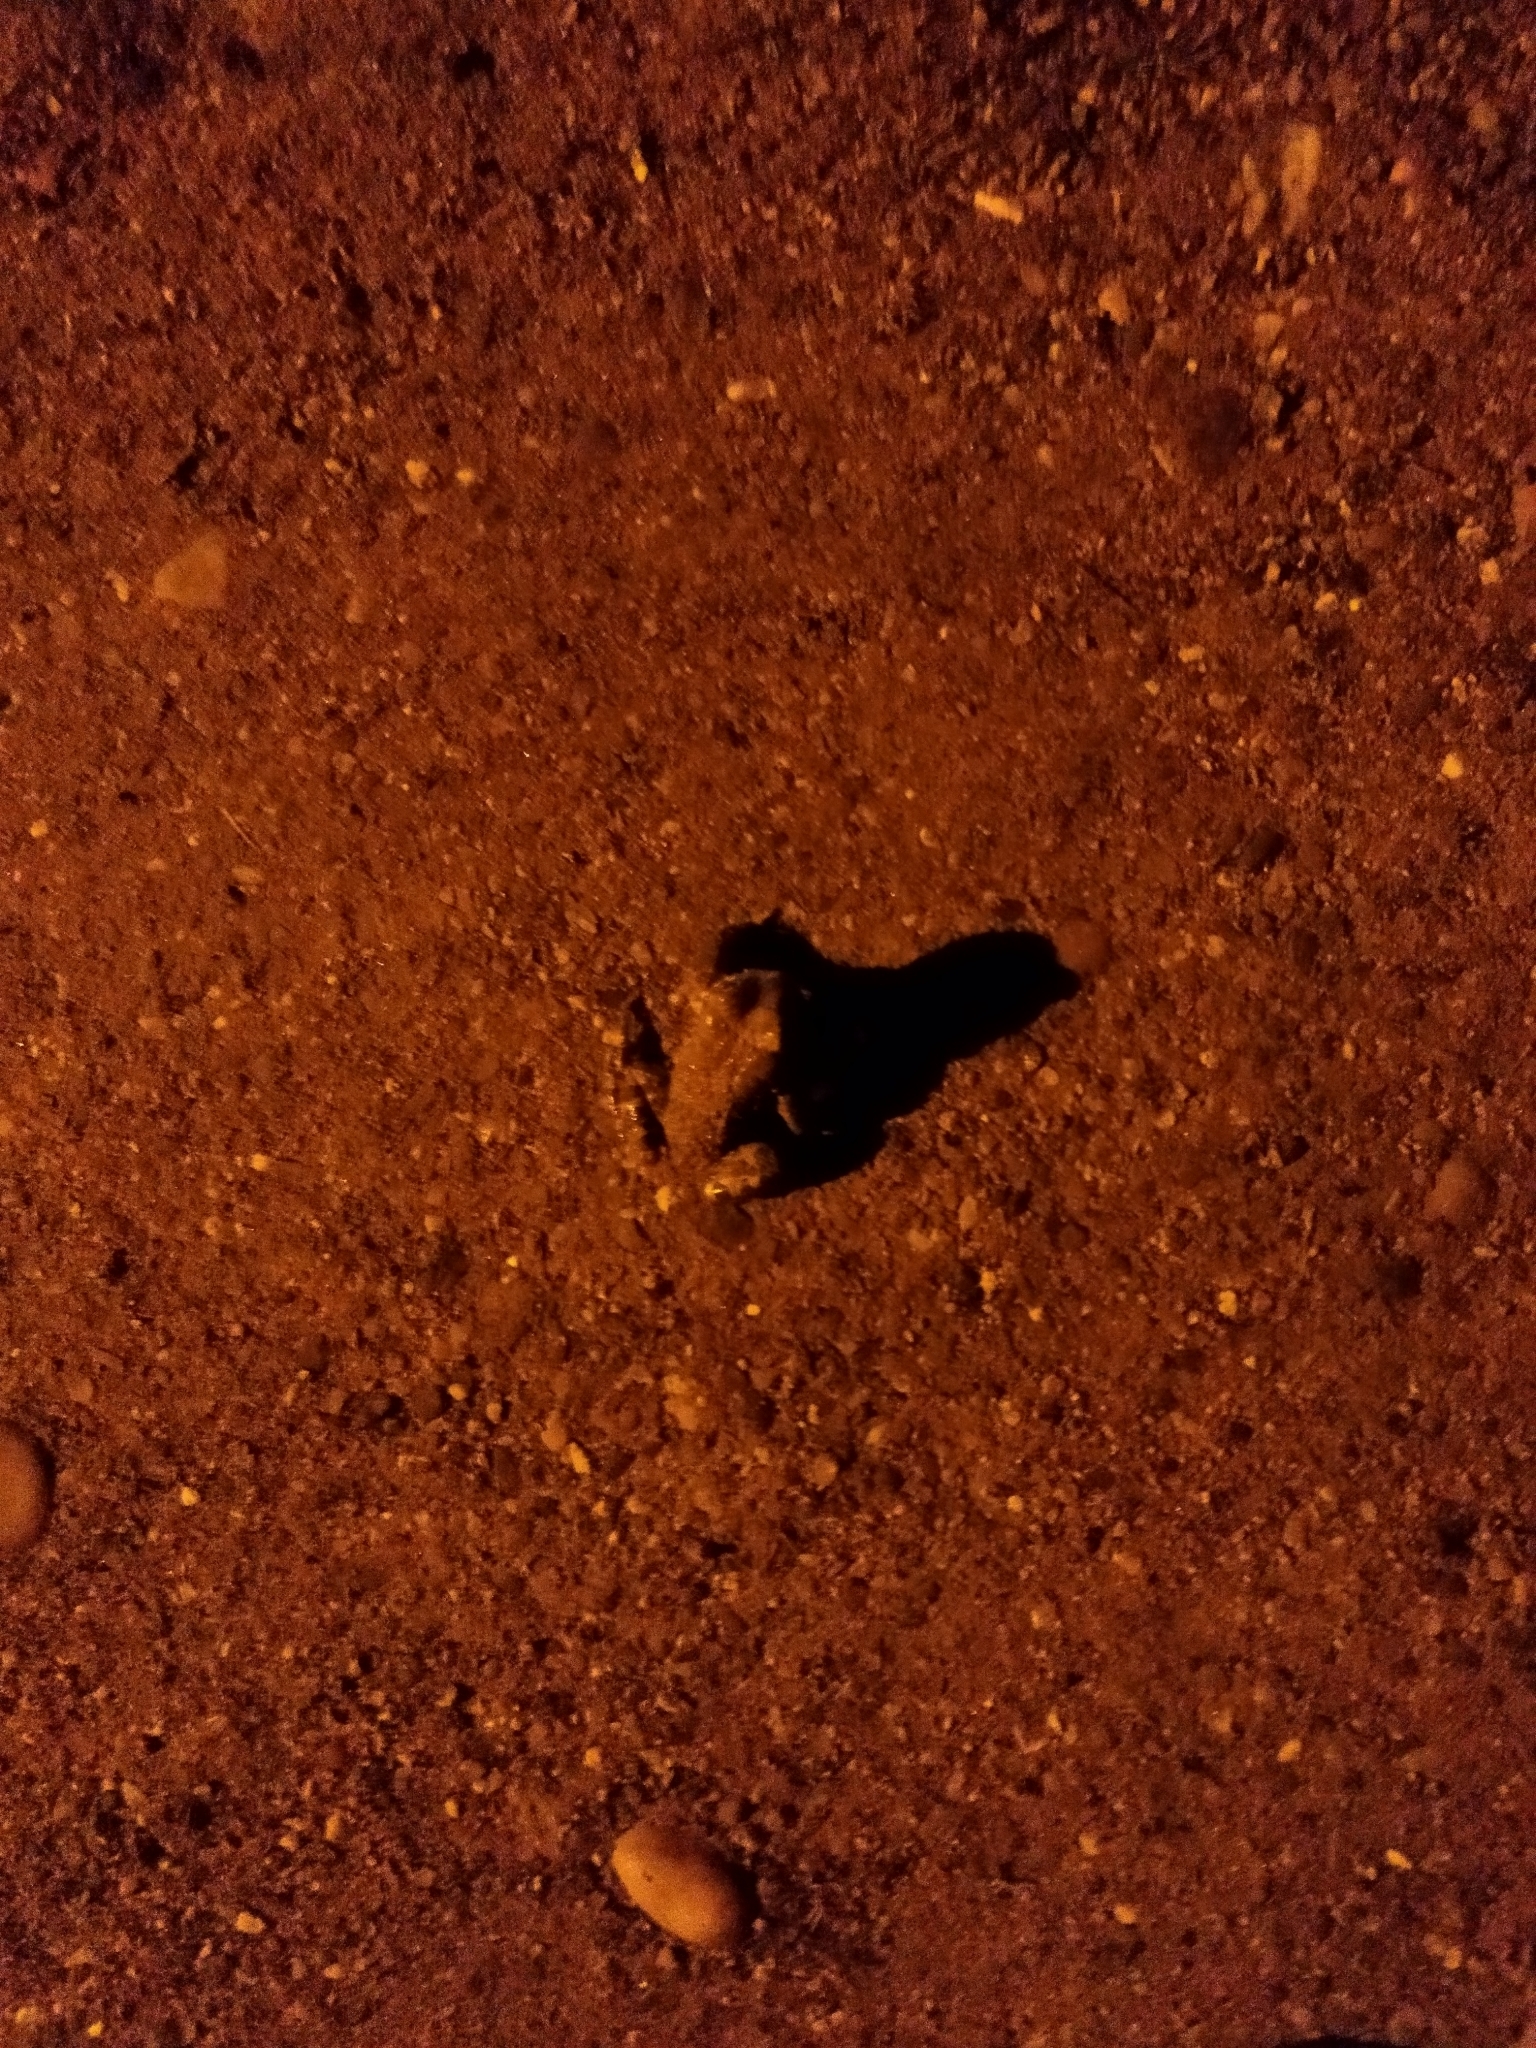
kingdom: Animalia
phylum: Chordata
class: Amphibia
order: Anura
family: Bufonidae
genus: Bufotes
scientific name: Bufotes viridis
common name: European green toad
